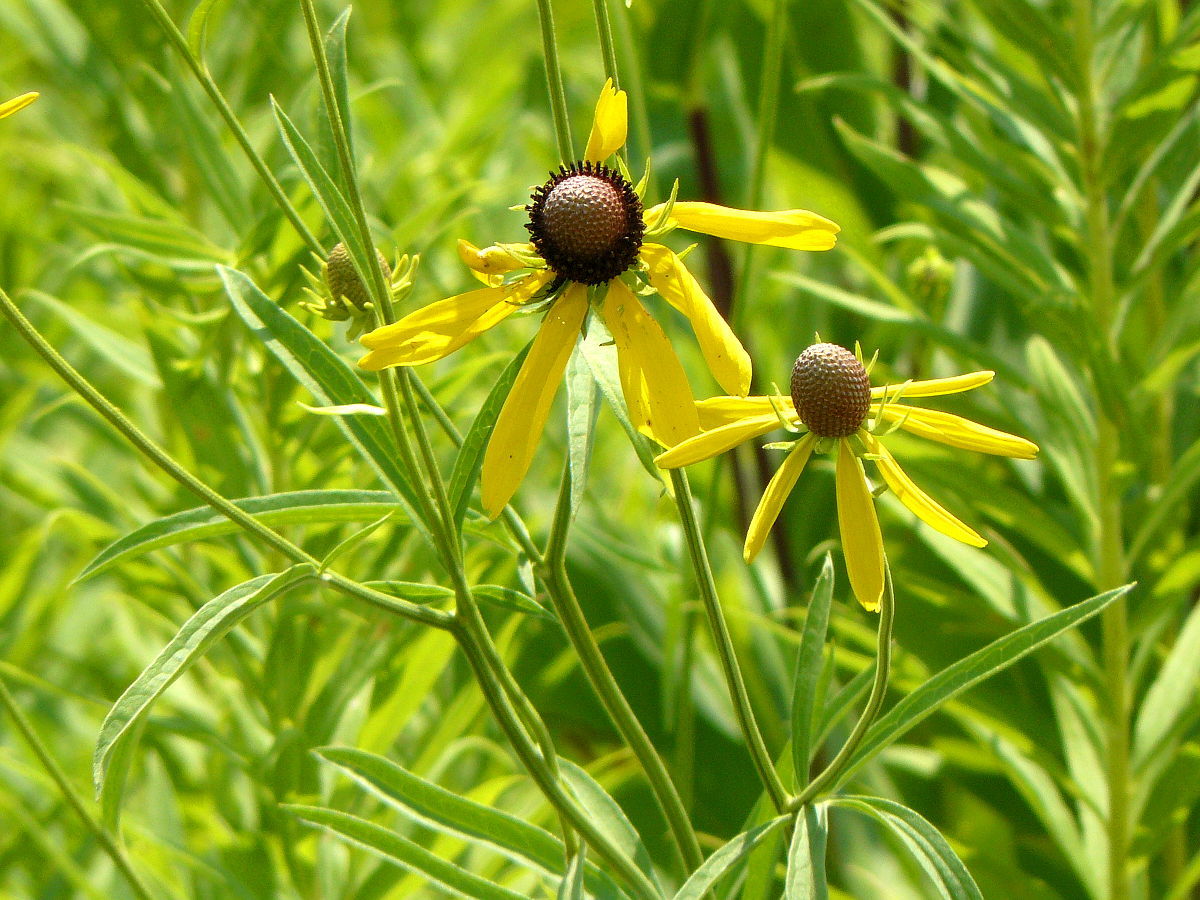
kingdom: Plantae
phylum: Tracheophyta
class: Magnoliopsida
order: Asterales
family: Asteraceae
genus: Ratibida
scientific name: Ratibida pinnata
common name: Drooping prairie-coneflower
